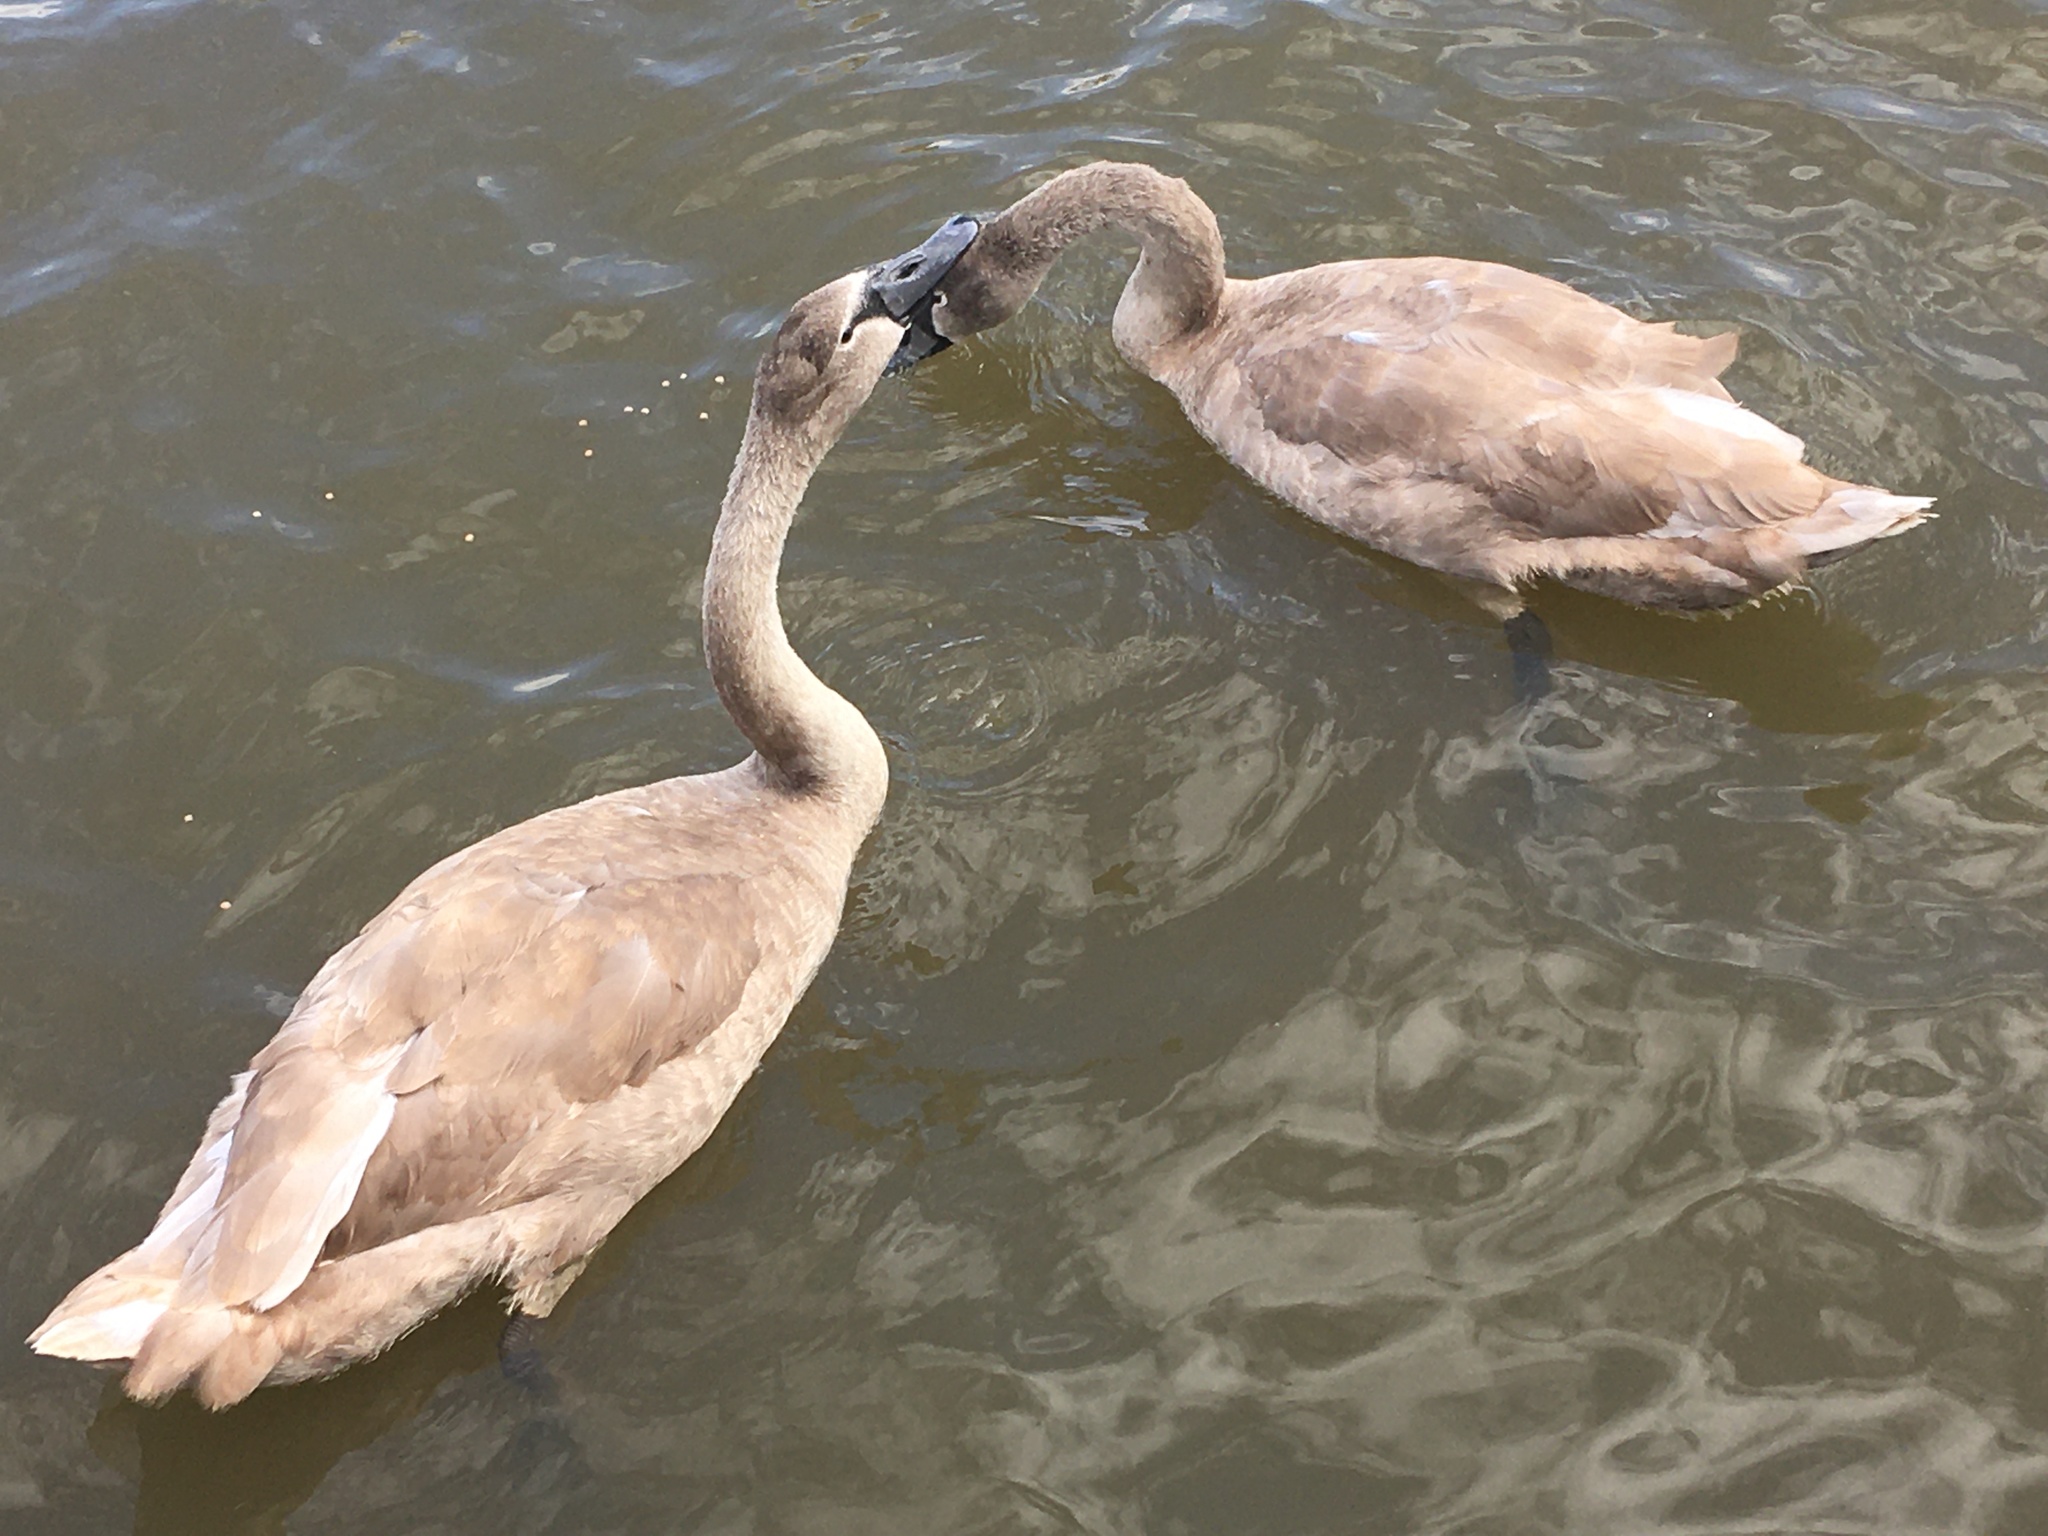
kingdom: Animalia
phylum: Chordata
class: Aves
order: Anseriformes
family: Anatidae
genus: Cygnus
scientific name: Cygnus olor
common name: Mute swan
